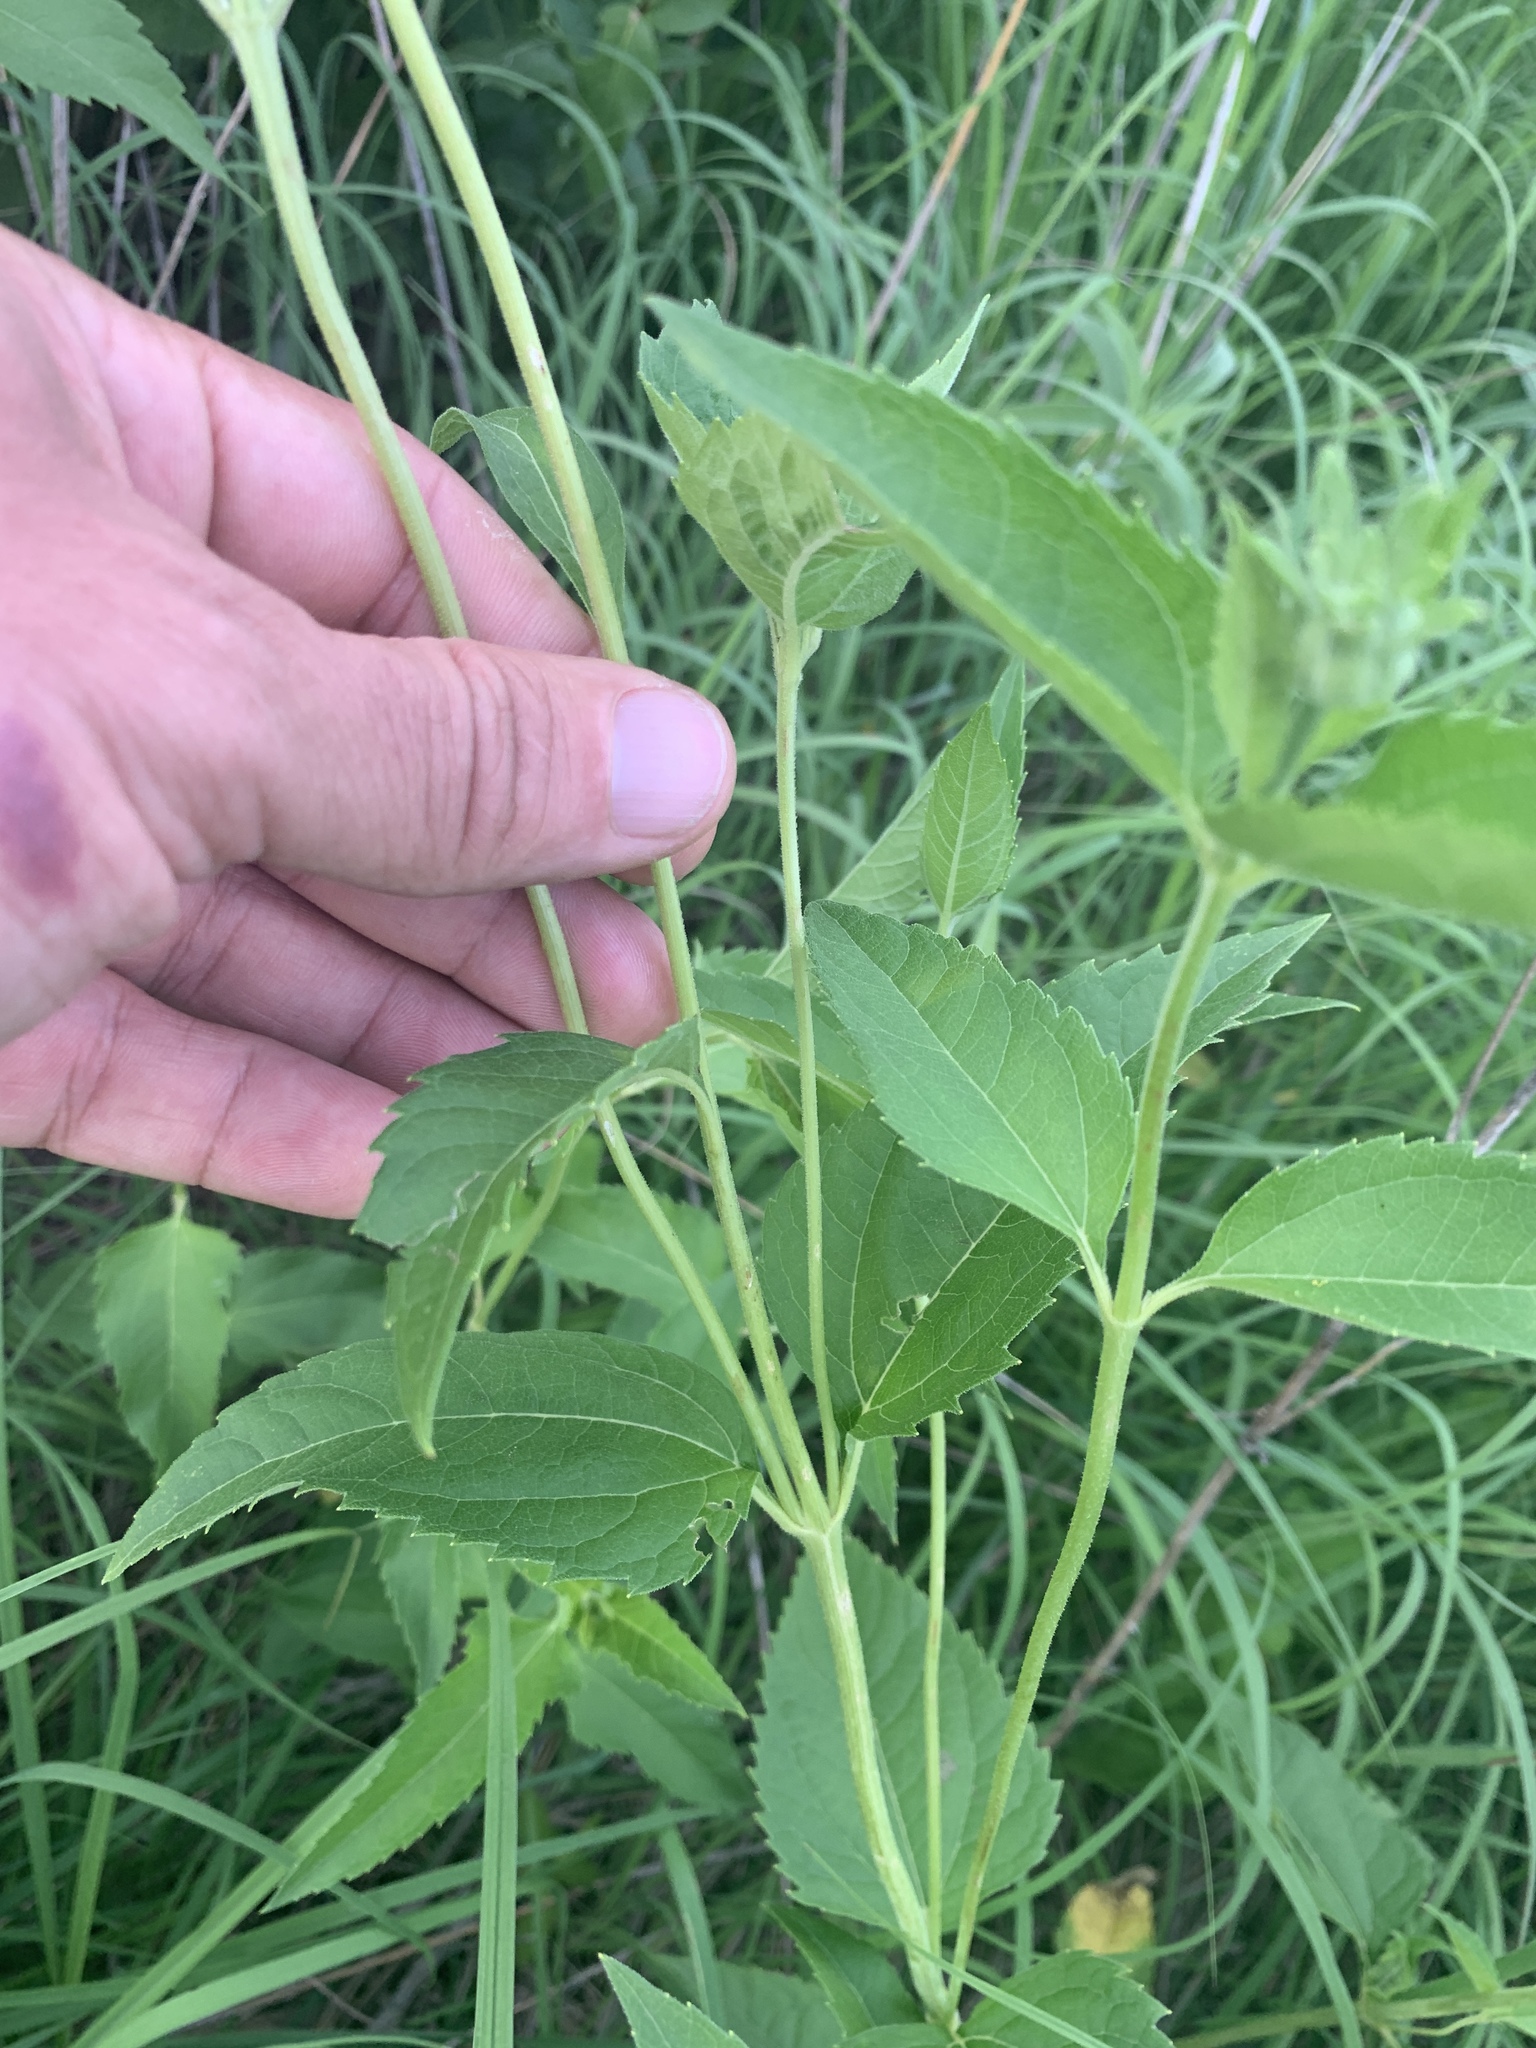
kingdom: Plantae
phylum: Tracheophyta
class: Magnoliopsida
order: Asterales
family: Asteraceae
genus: Heliopsis
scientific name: Heliopsis helianthoides
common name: False sunflower
